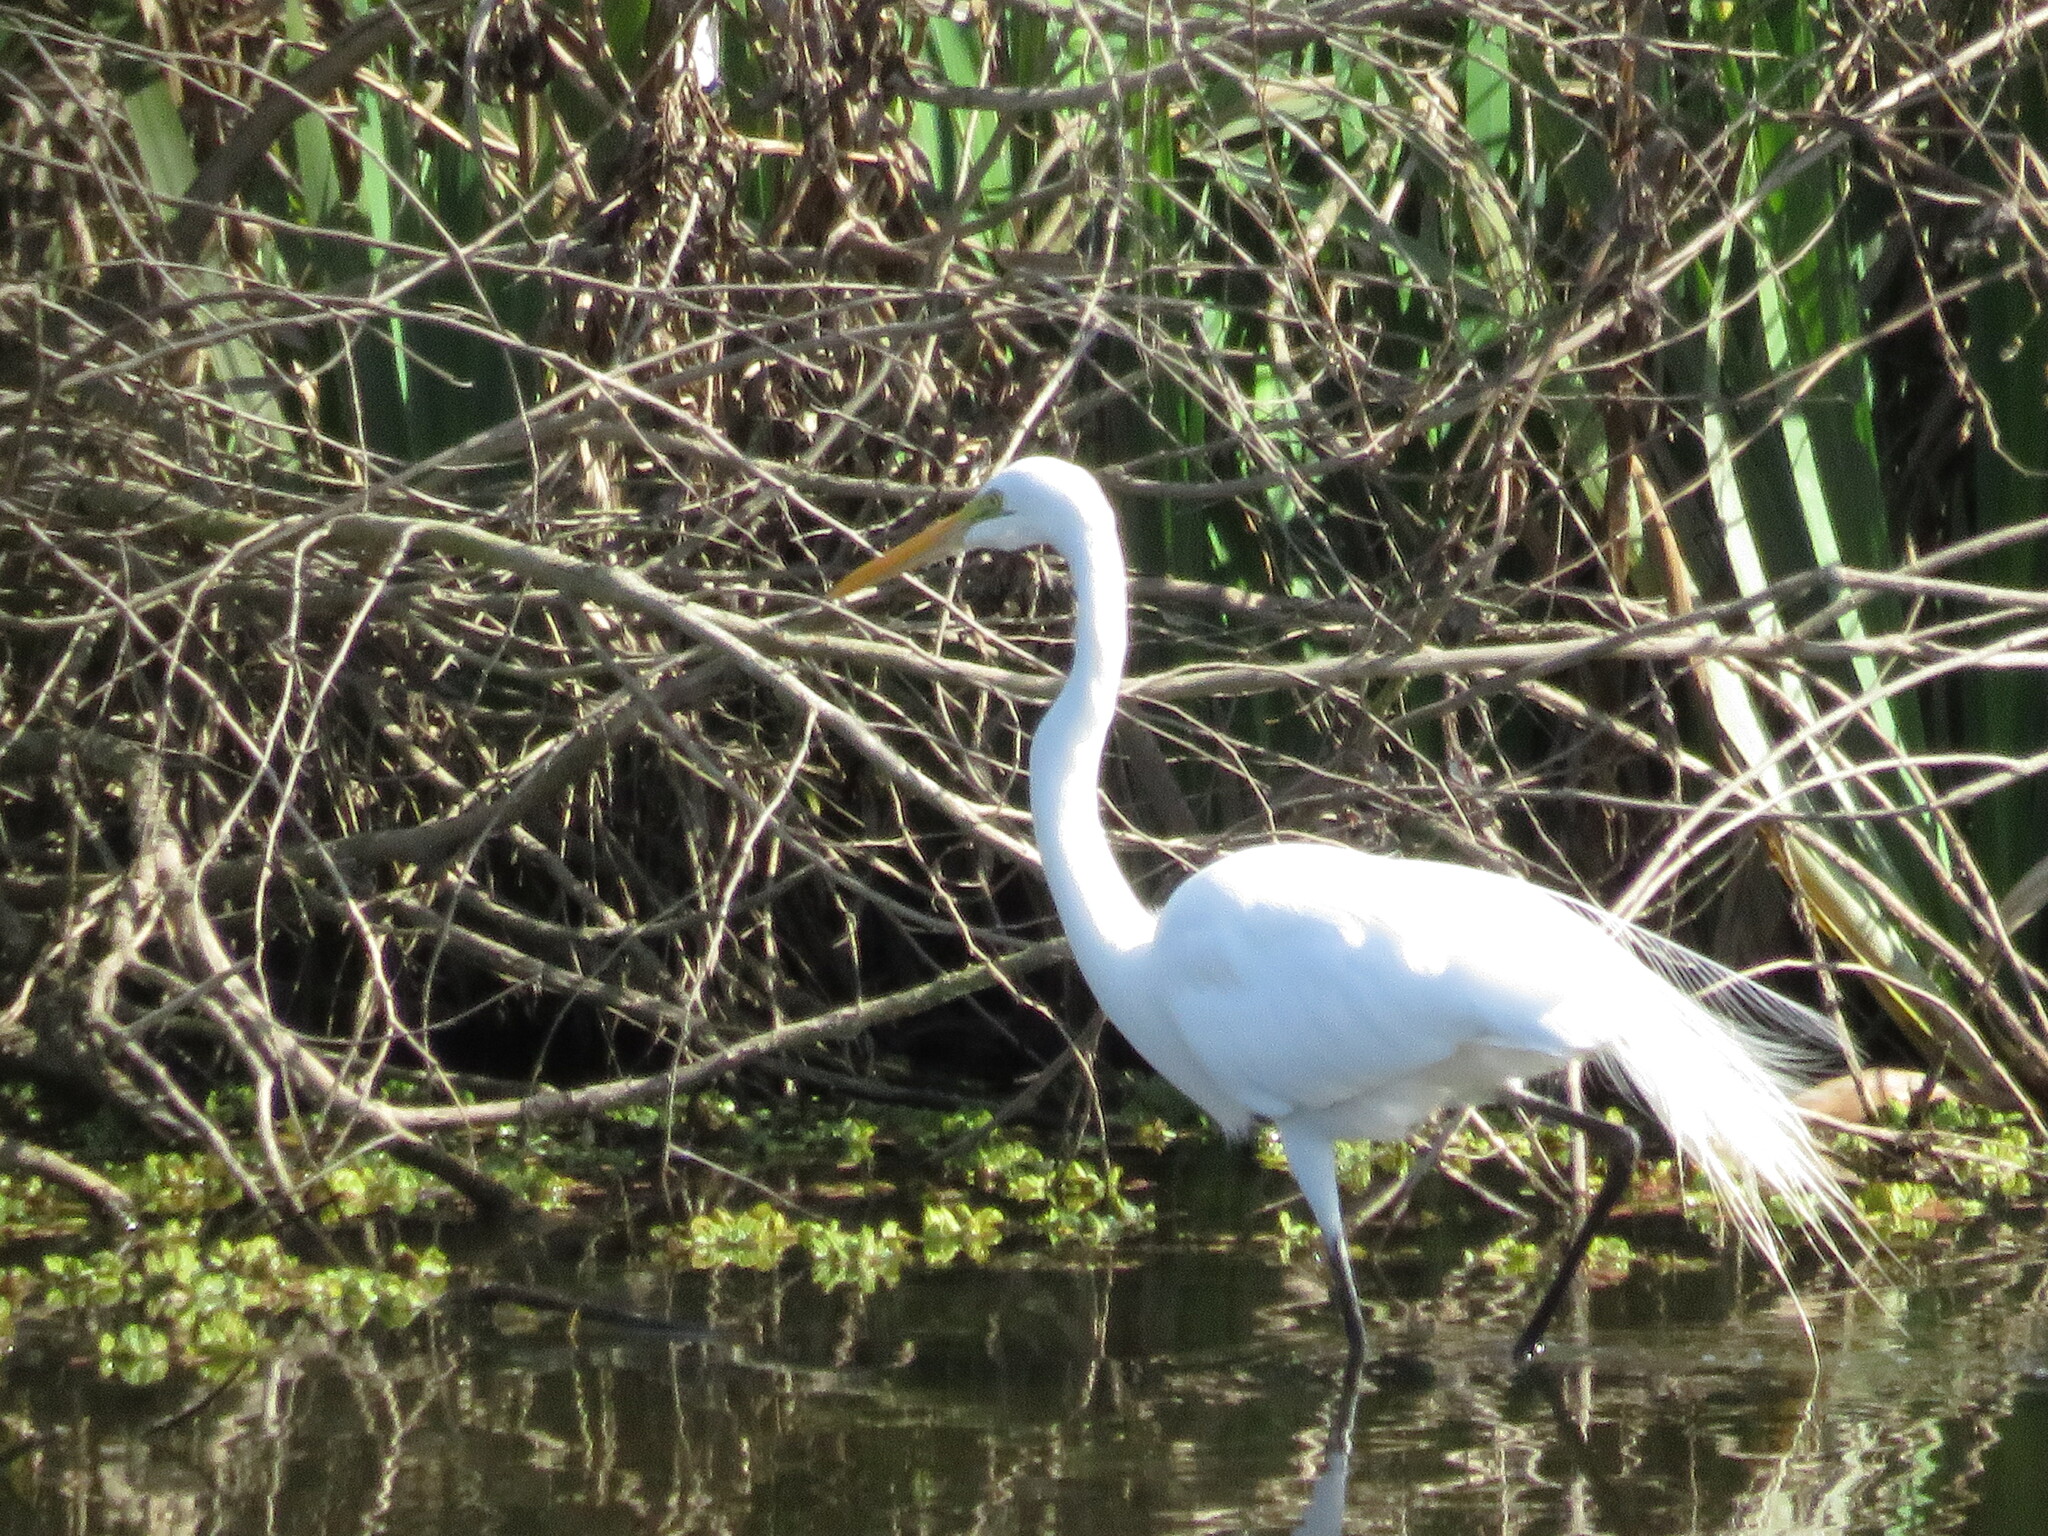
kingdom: Animalia
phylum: Chordata
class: Aves
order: Pelecaniformes
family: Ardeidae
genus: Ardea
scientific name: Ardea alba
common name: Great egret
